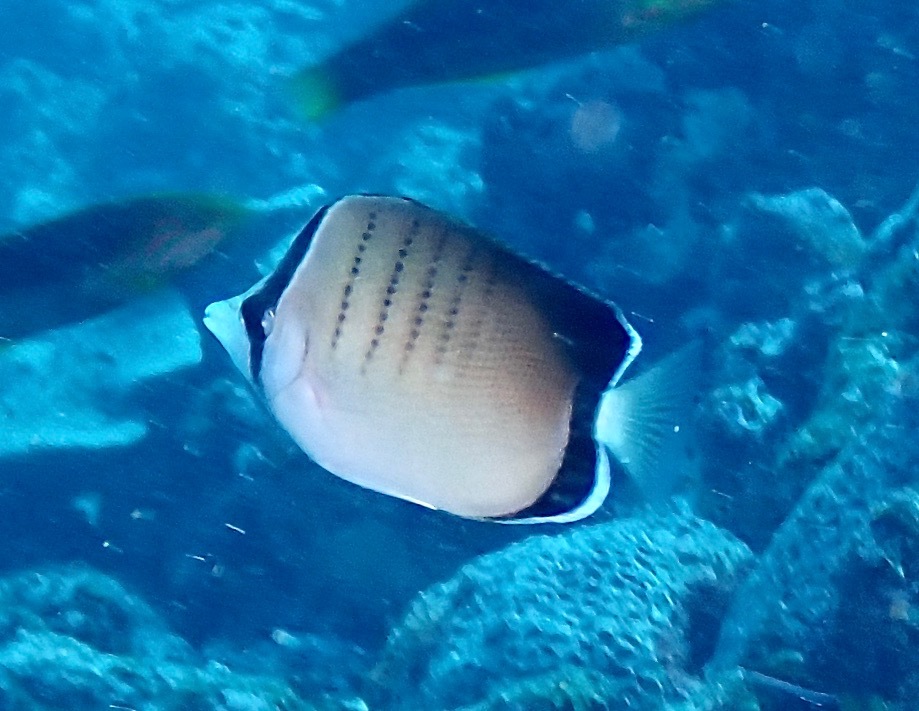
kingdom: Animalia
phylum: Chordata
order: Perciformes
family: Chaetodontidae
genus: Chaetodon
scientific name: Chaetodon assarius
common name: West australian butterflyfish
